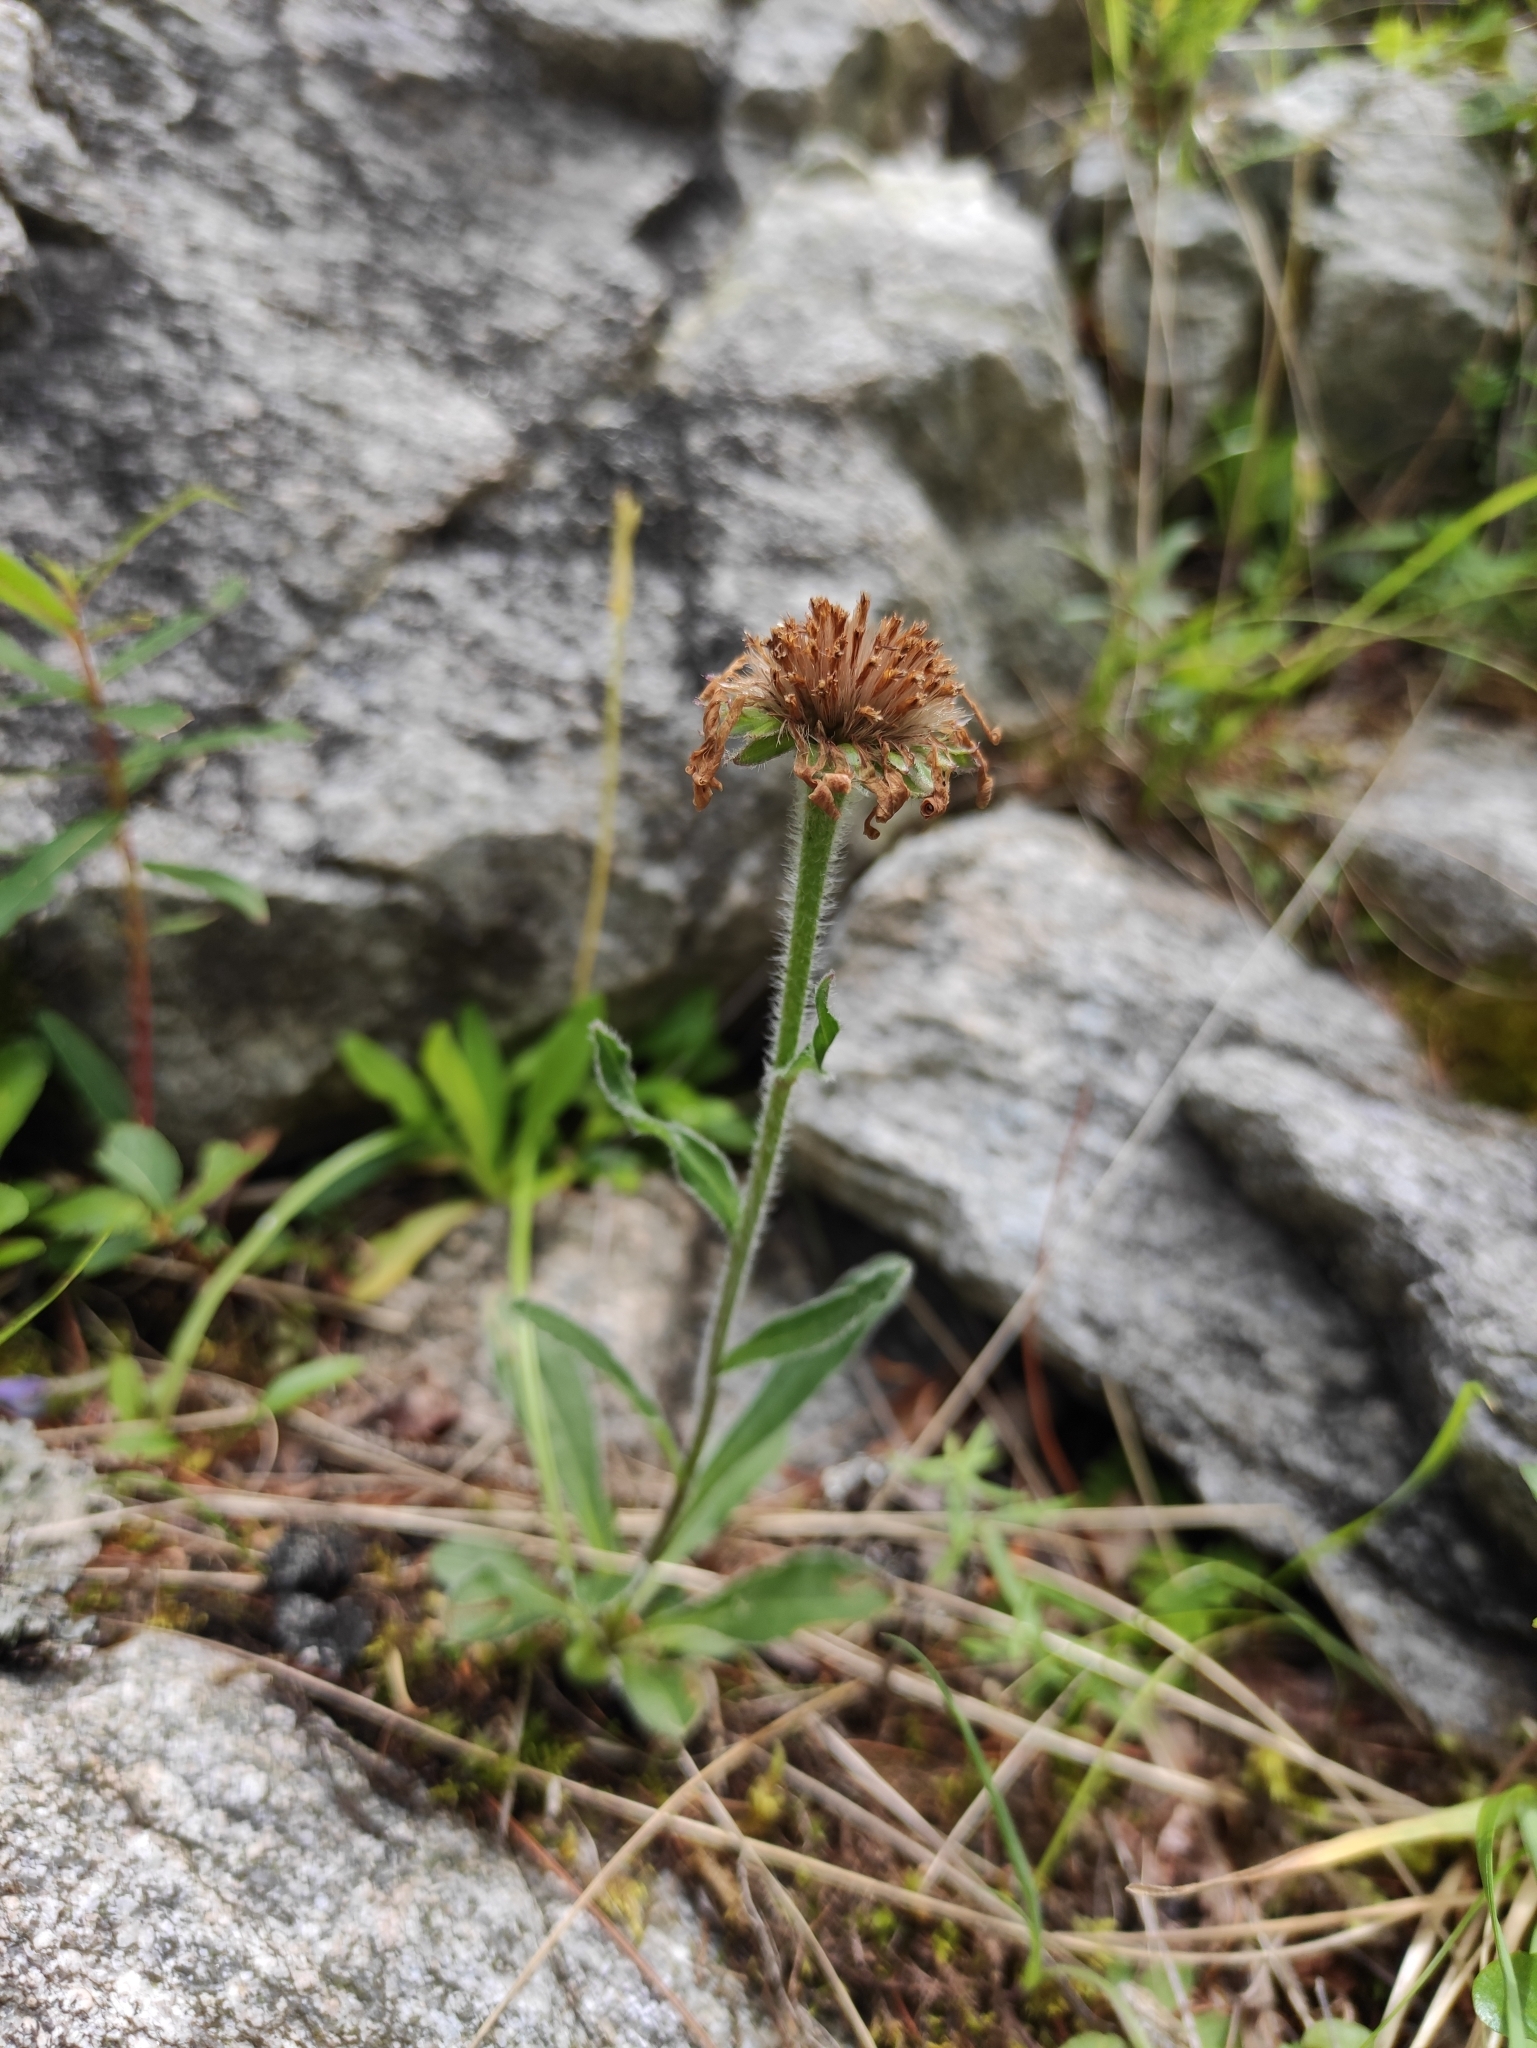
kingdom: Plantae
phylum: Tracheophyta
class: Magnoliopsida
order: Asterales
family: Asteraceae
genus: Aster
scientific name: Aster alpinus
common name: Alpine aster
